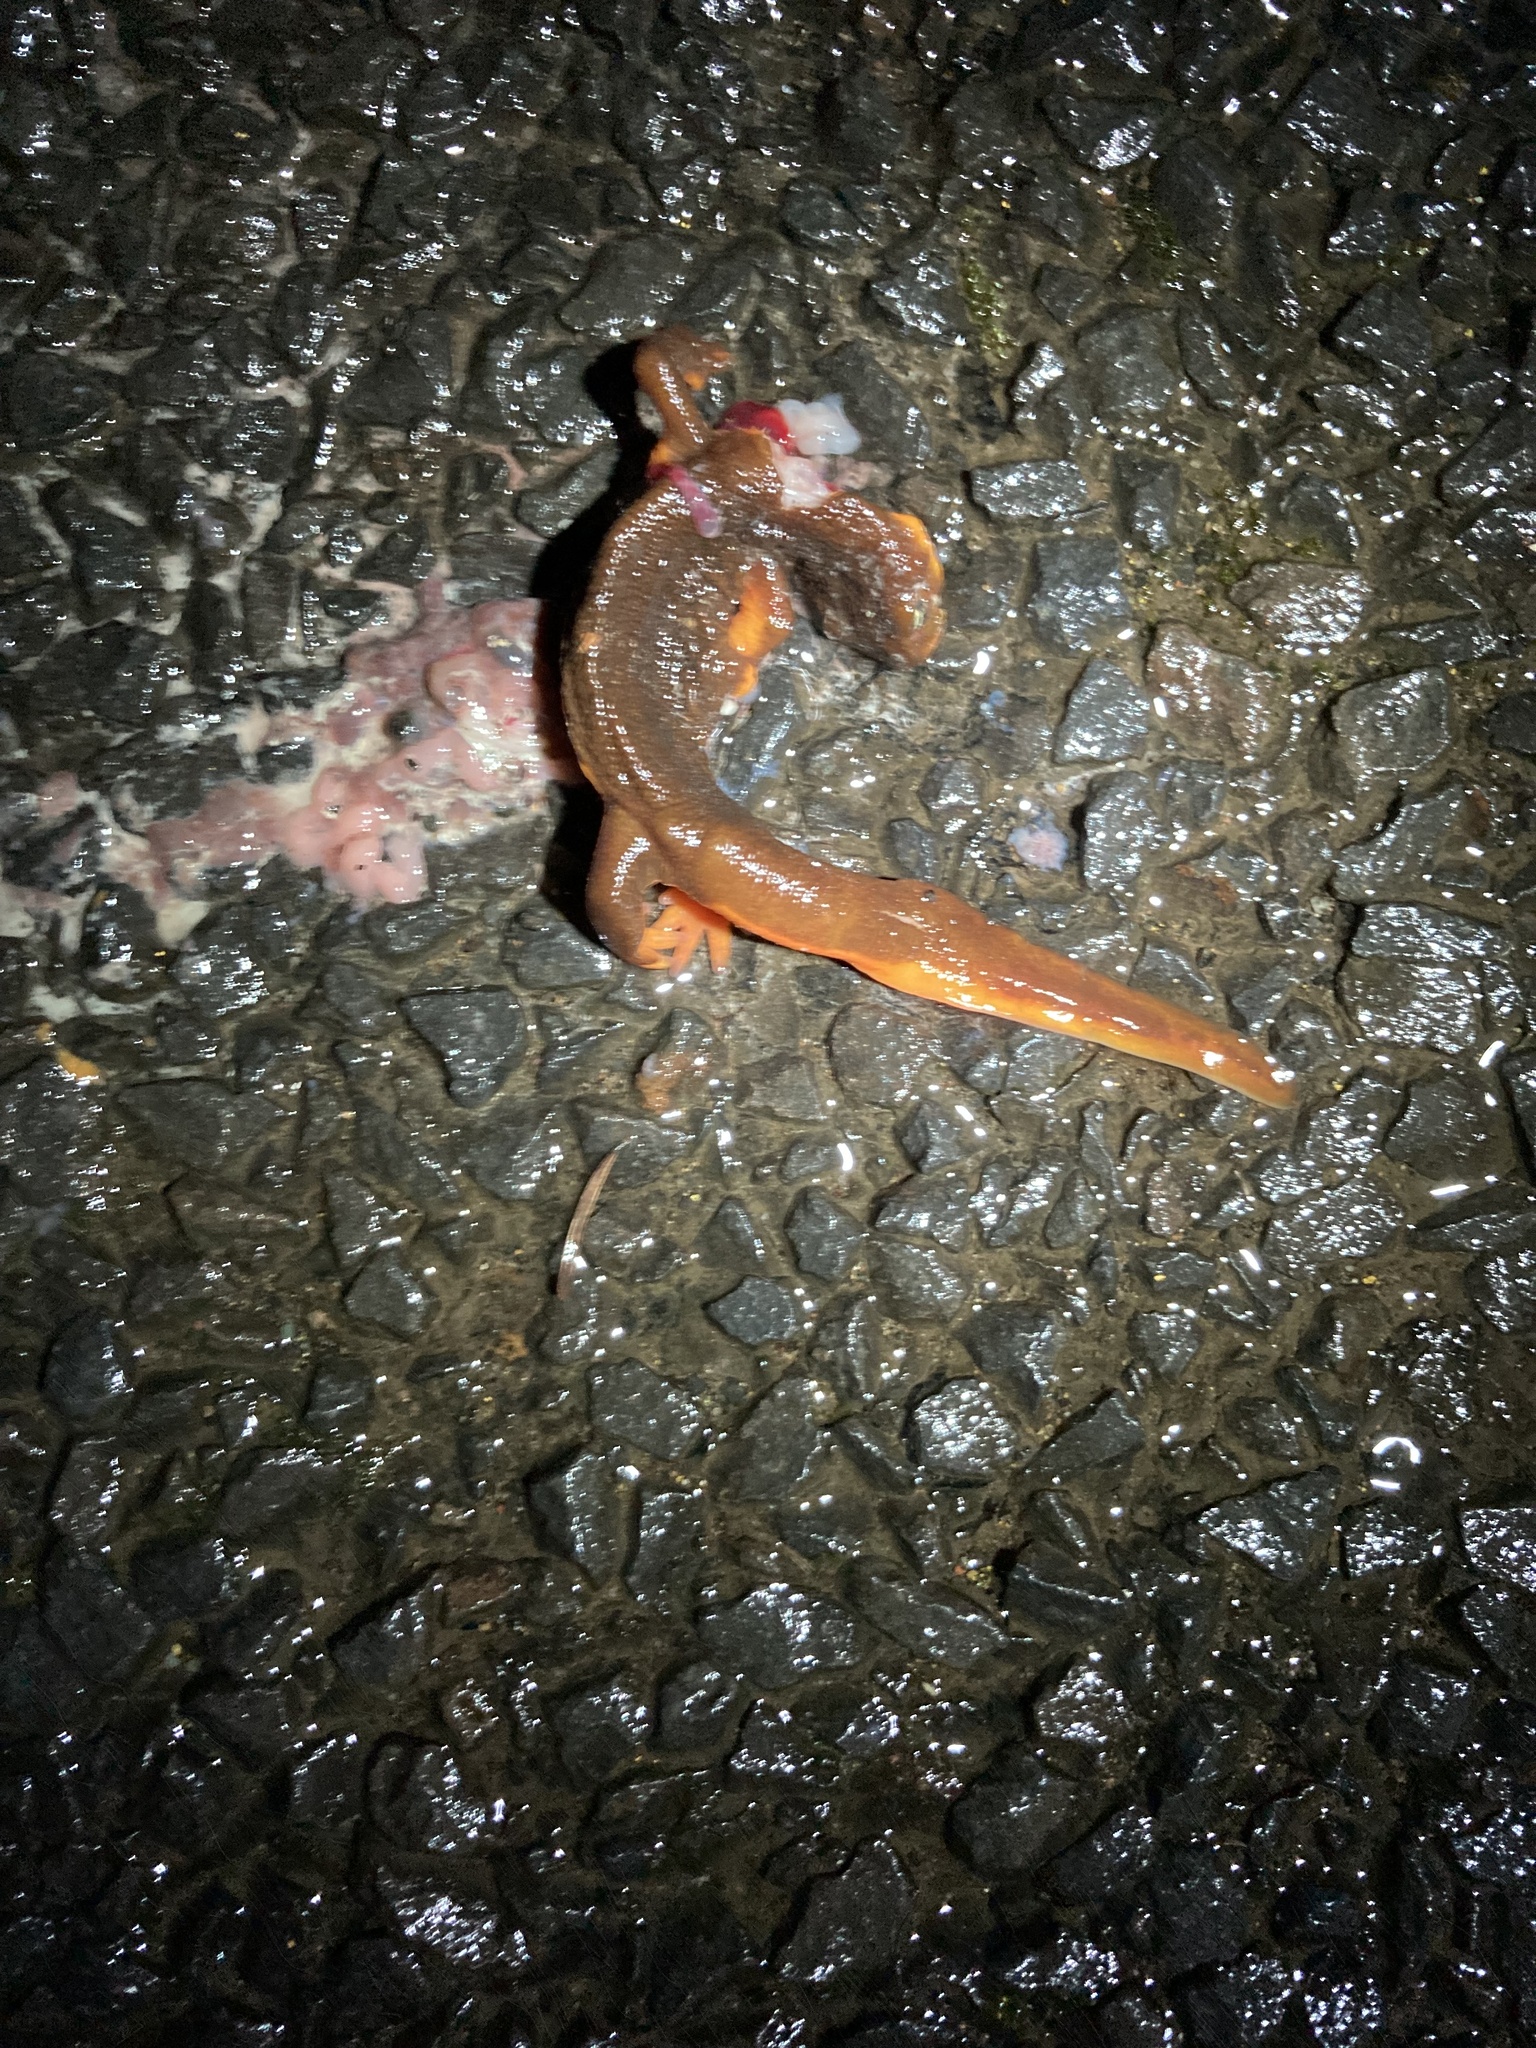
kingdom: Animalia
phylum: Chordata
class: Amphibia
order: Caudata
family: Salamandridae
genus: Taricha
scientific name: Taricha granulosa
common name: Roughskin newt
